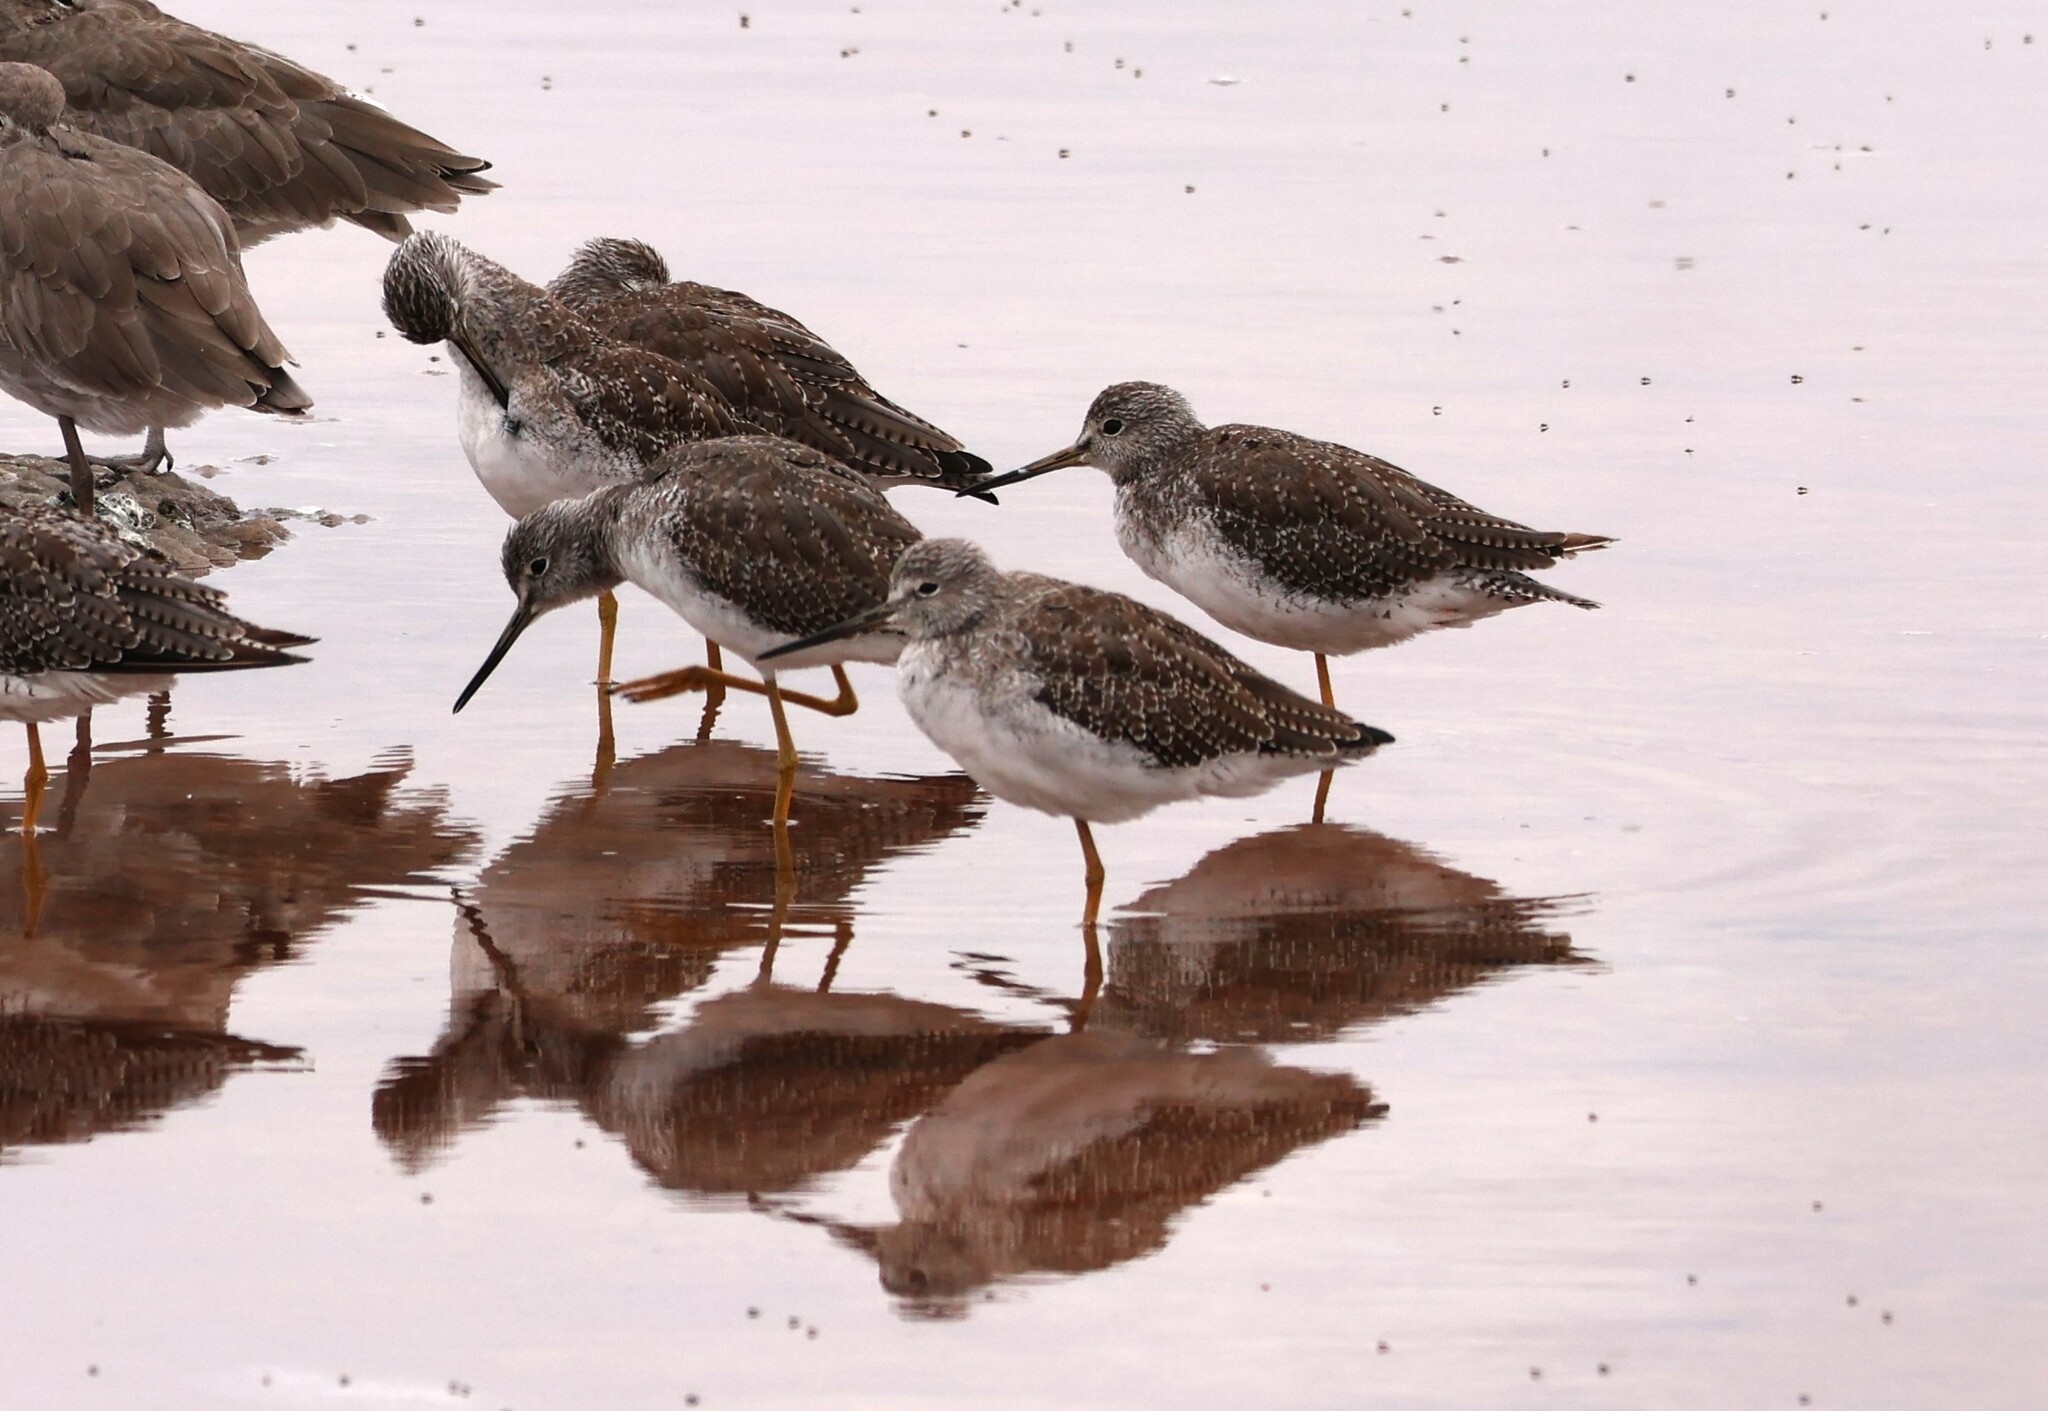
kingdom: Animalia
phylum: Chordata
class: Aves
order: Charadriiformes
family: Scolopacidae
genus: Tringa
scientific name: Tringa melanoleuca
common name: Greater yellowlegs
